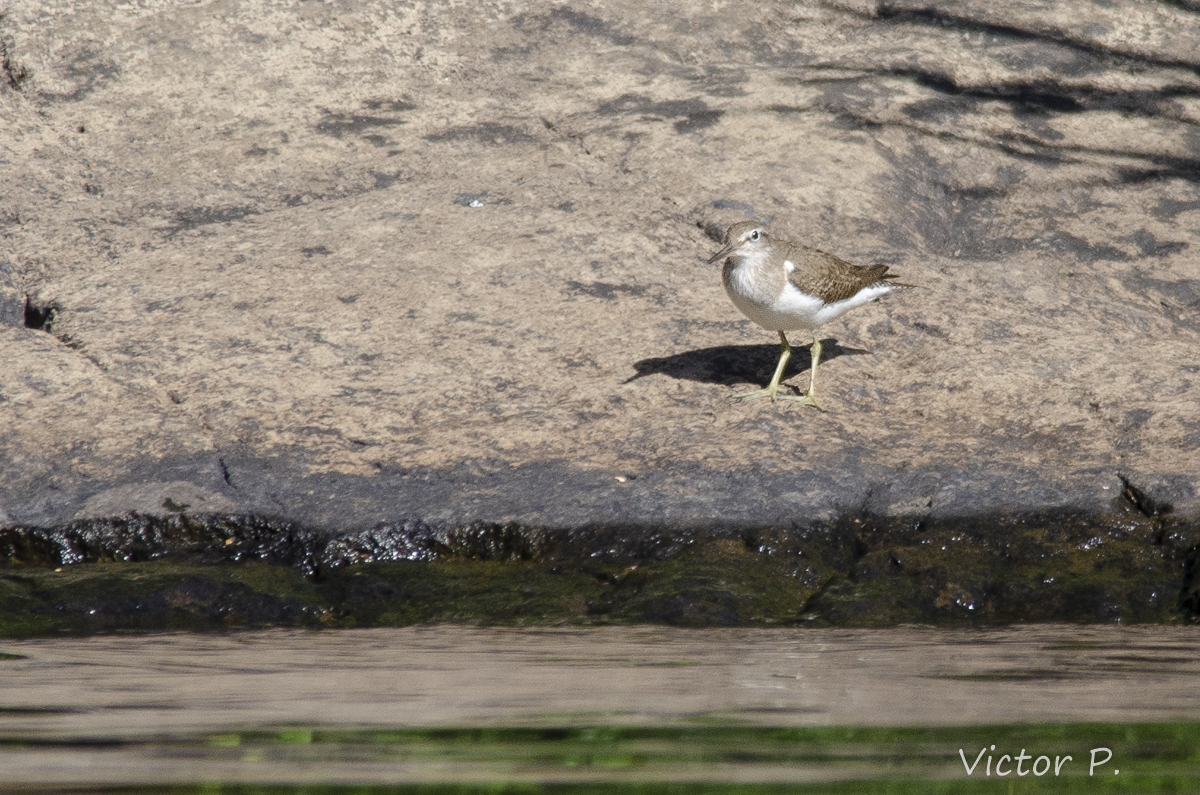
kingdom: Animalia
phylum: Chordata
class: Aves
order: Charadriiformes
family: Scolopacidae
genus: Actitis
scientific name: Actitis hypoleucos
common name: Common sandpiper
